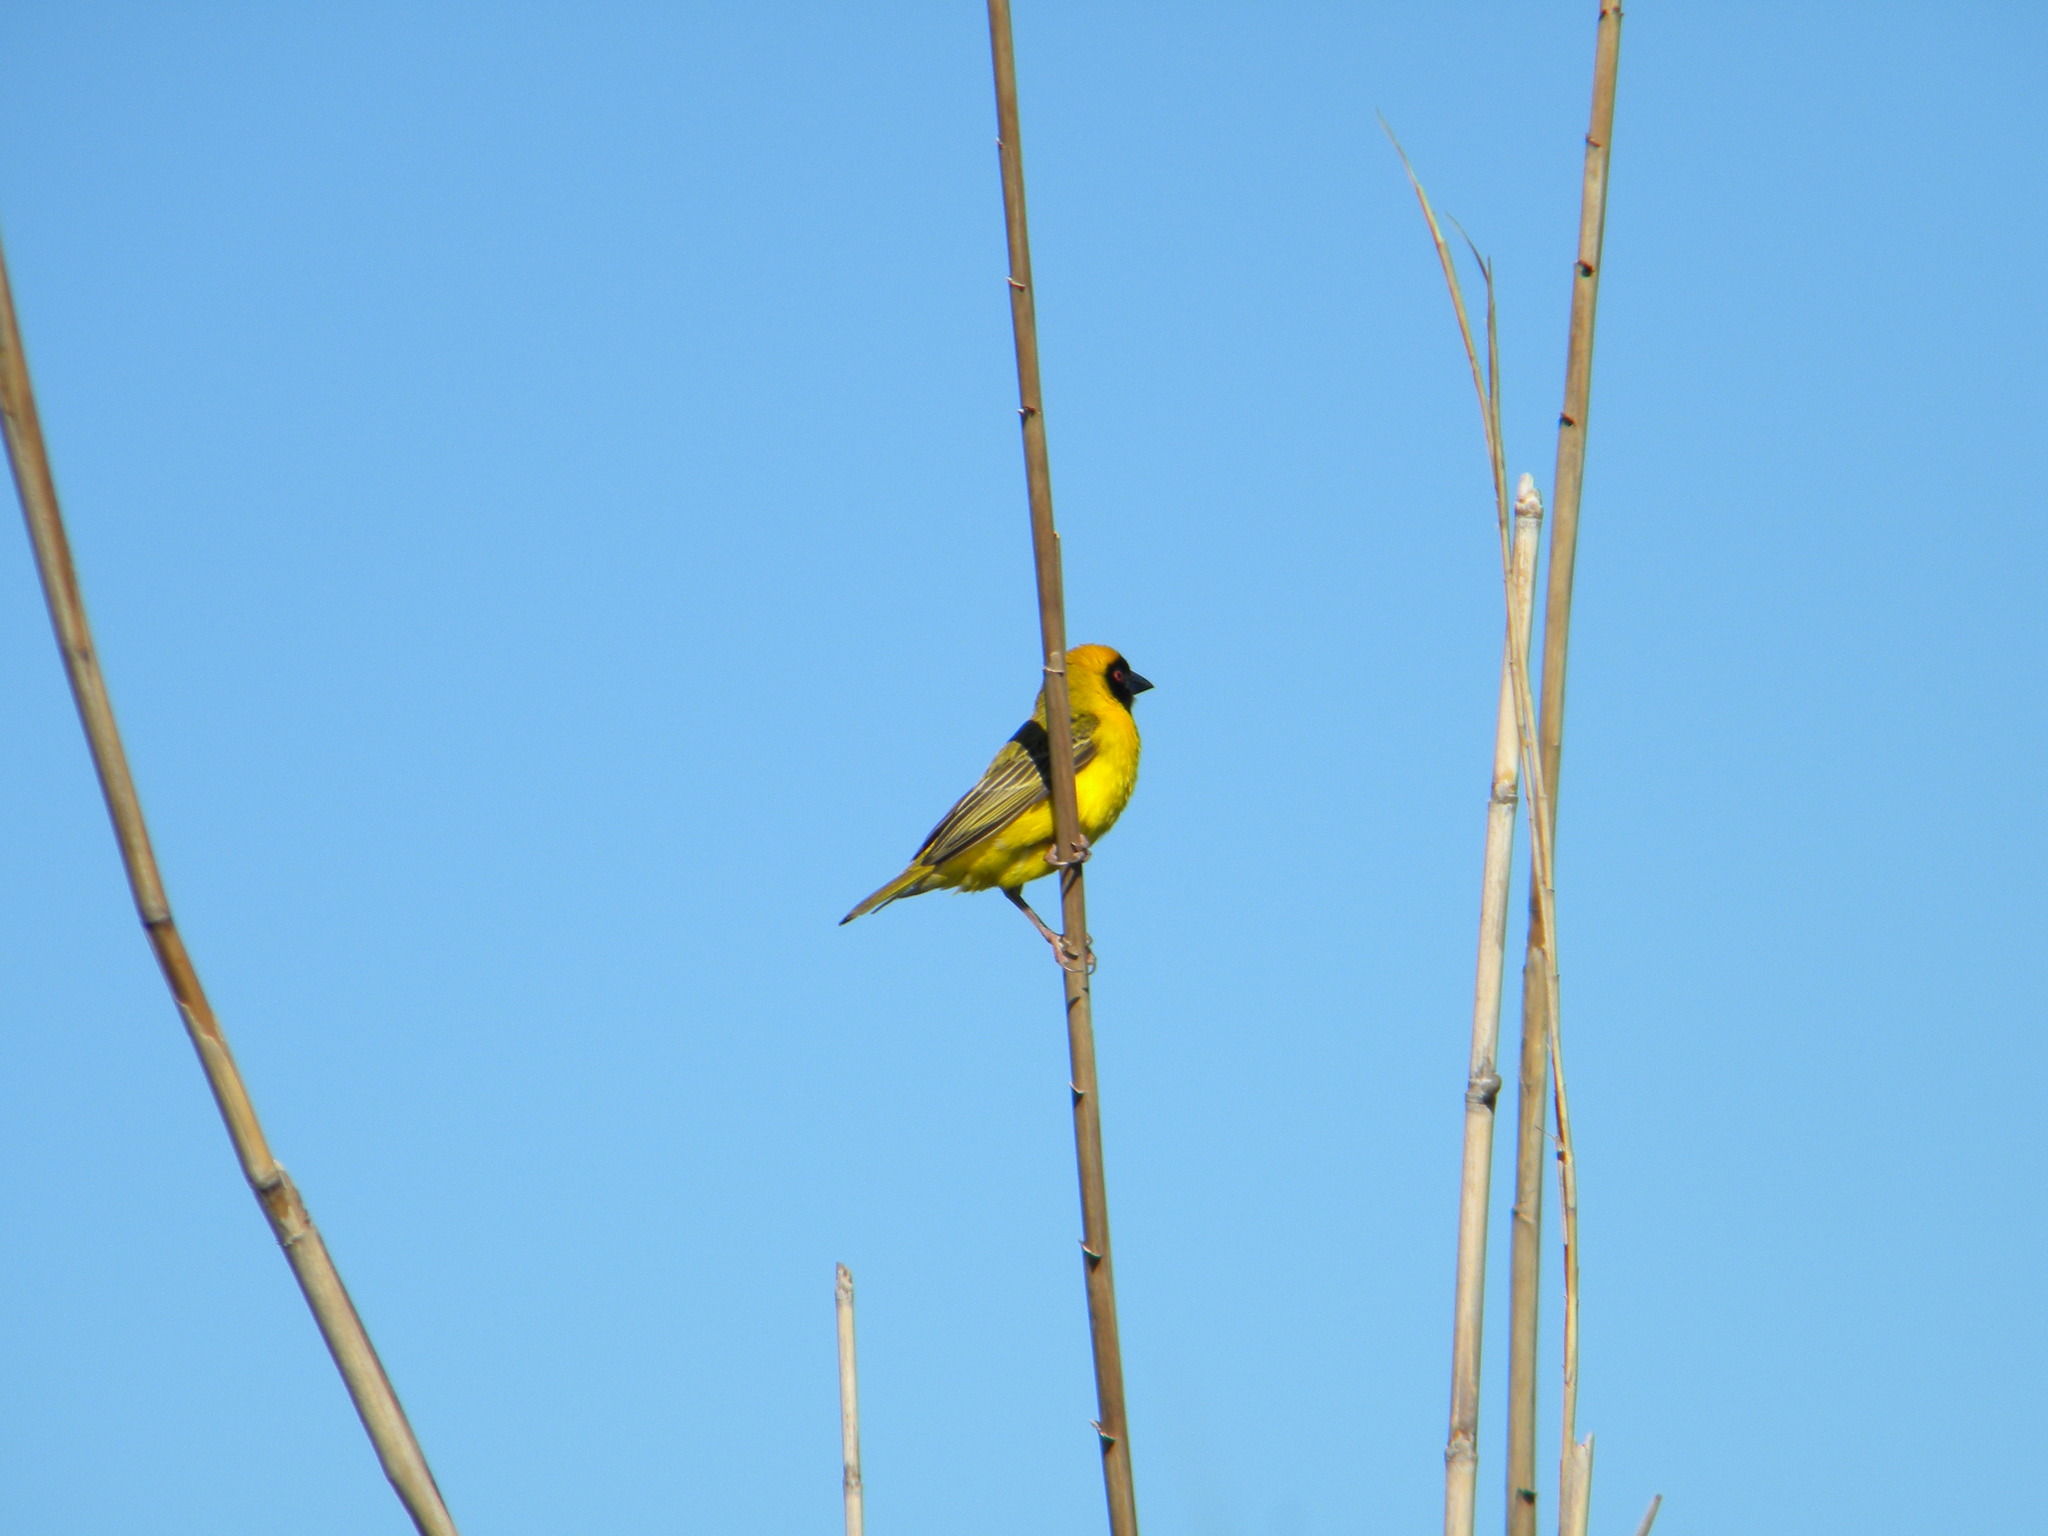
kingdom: Animalia
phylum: Chordata
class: Aves
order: Passeriformes
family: Ploceidae
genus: Ploceus
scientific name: Ploceus velatus
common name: Southern masked weaver
